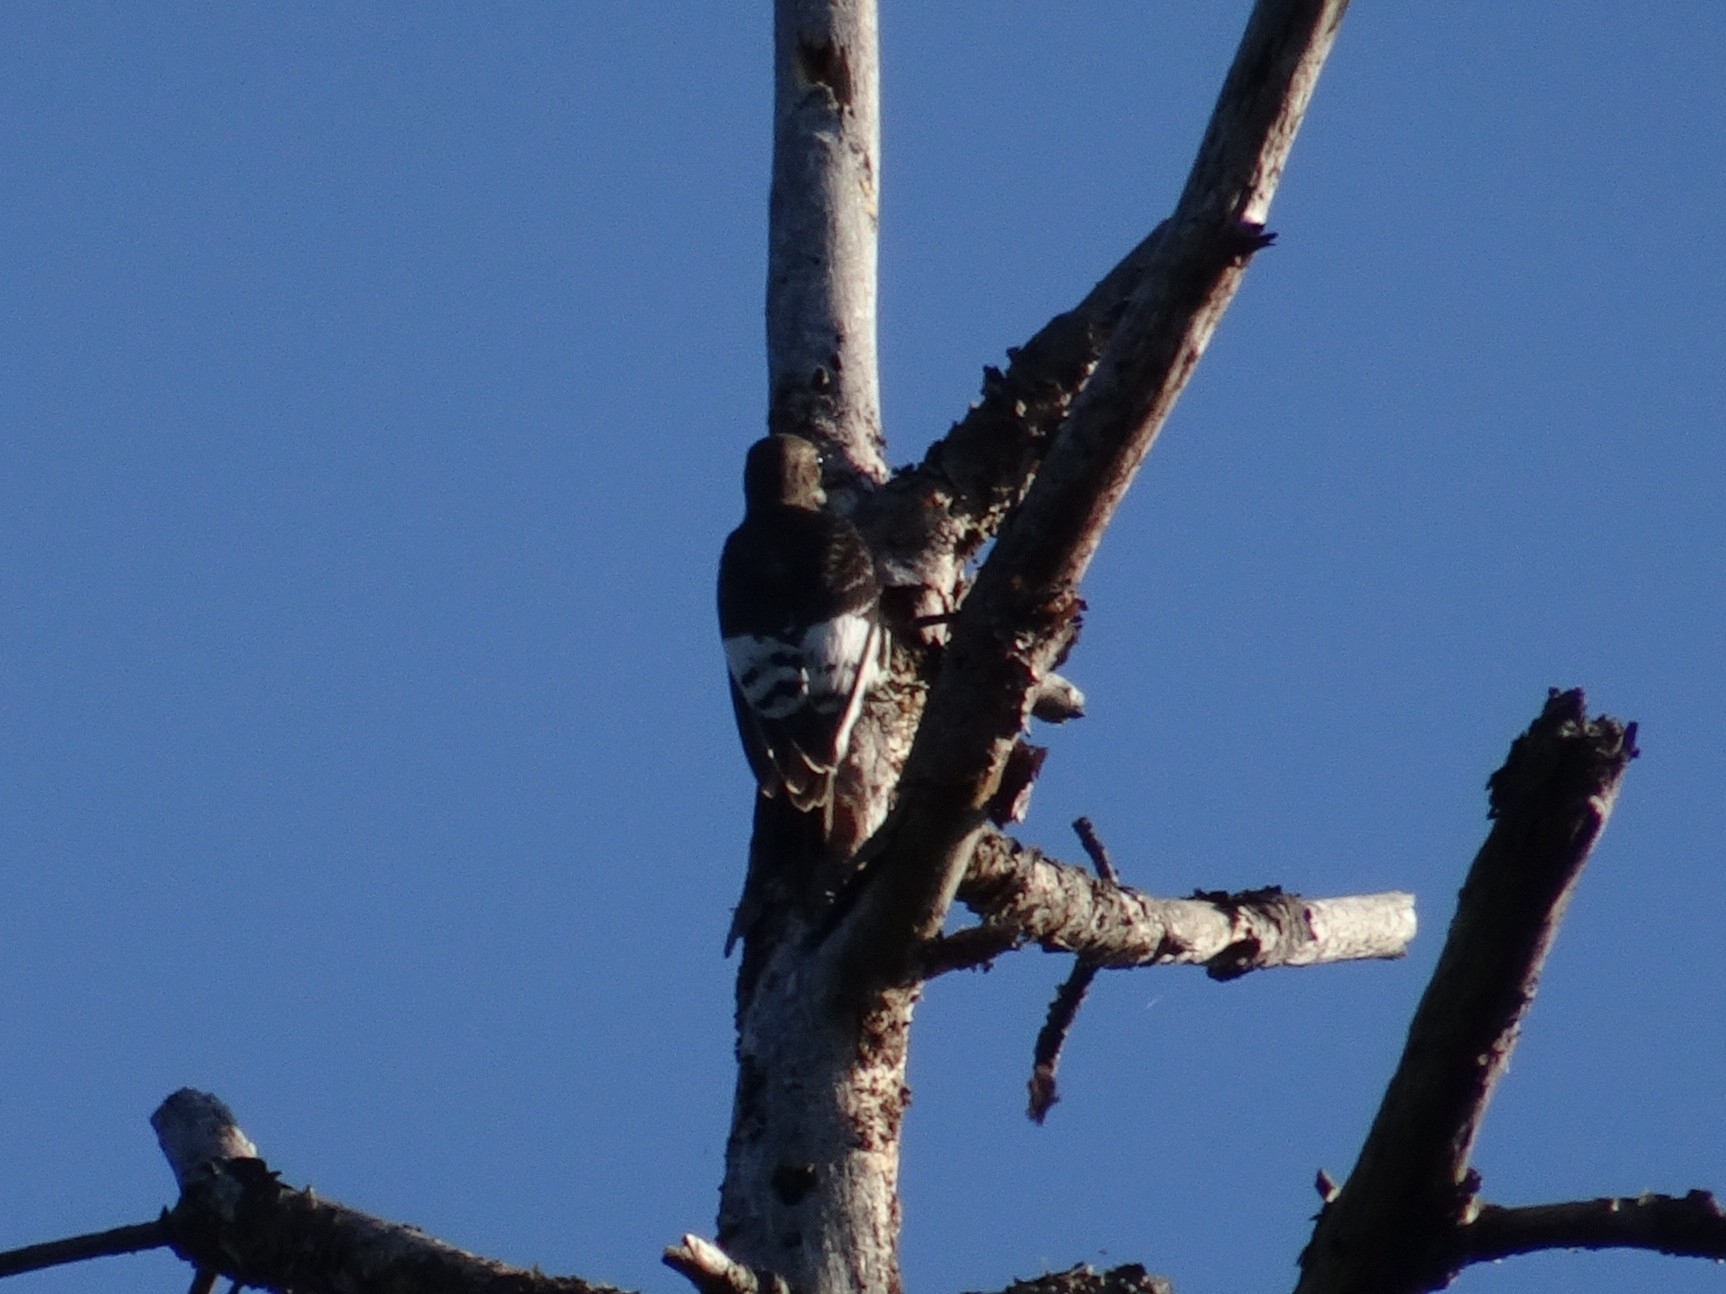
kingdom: Animalia
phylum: Chordata
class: Aves
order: Piciformes
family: Picidae
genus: Melanerpes
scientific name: Melanerpes erythrocephalus
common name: Red-headed woodpecker
